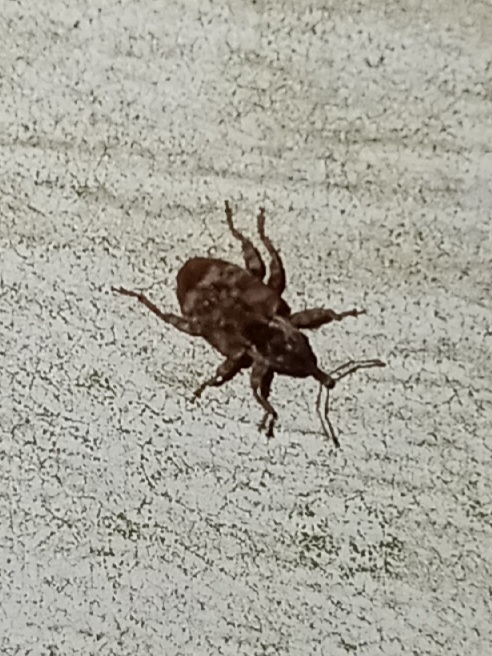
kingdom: Animalia
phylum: Arthropoda
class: Insecta
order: Coleoptera
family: Curculionidae
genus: Conotrachelus
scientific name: Conotrachelus anaglypticus
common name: Cambium curculio
